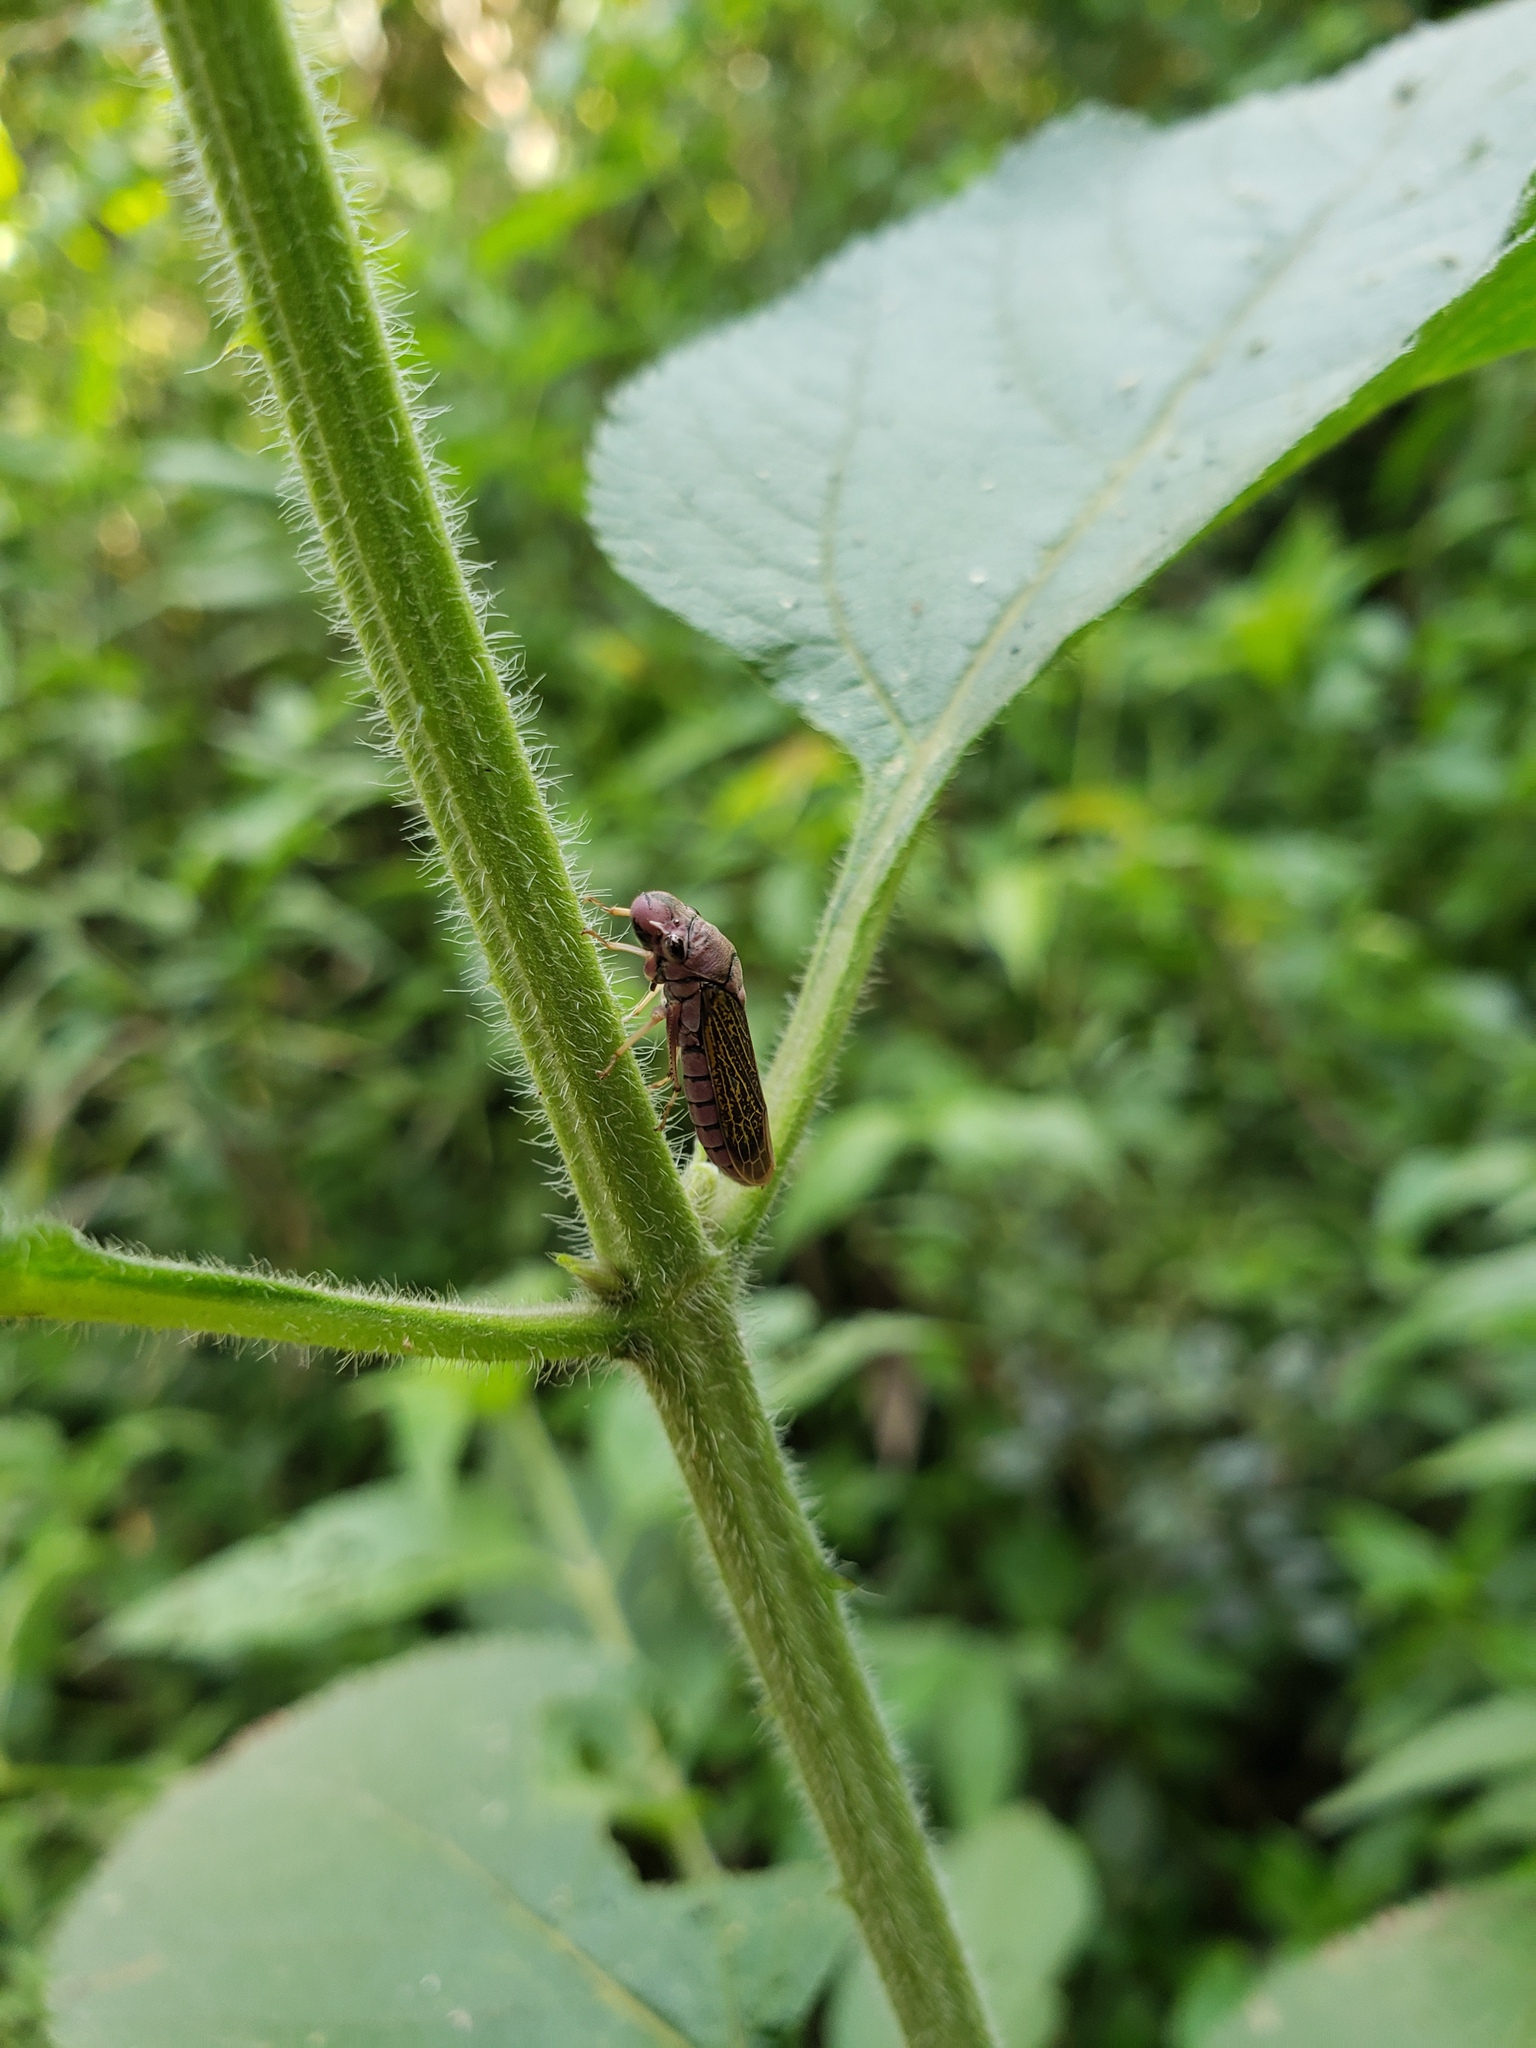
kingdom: Animalia
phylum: Arthropoda
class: Insecta
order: Hemiptera
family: Cicadellidae
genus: Oncometopia
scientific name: Oncometopia facialis
